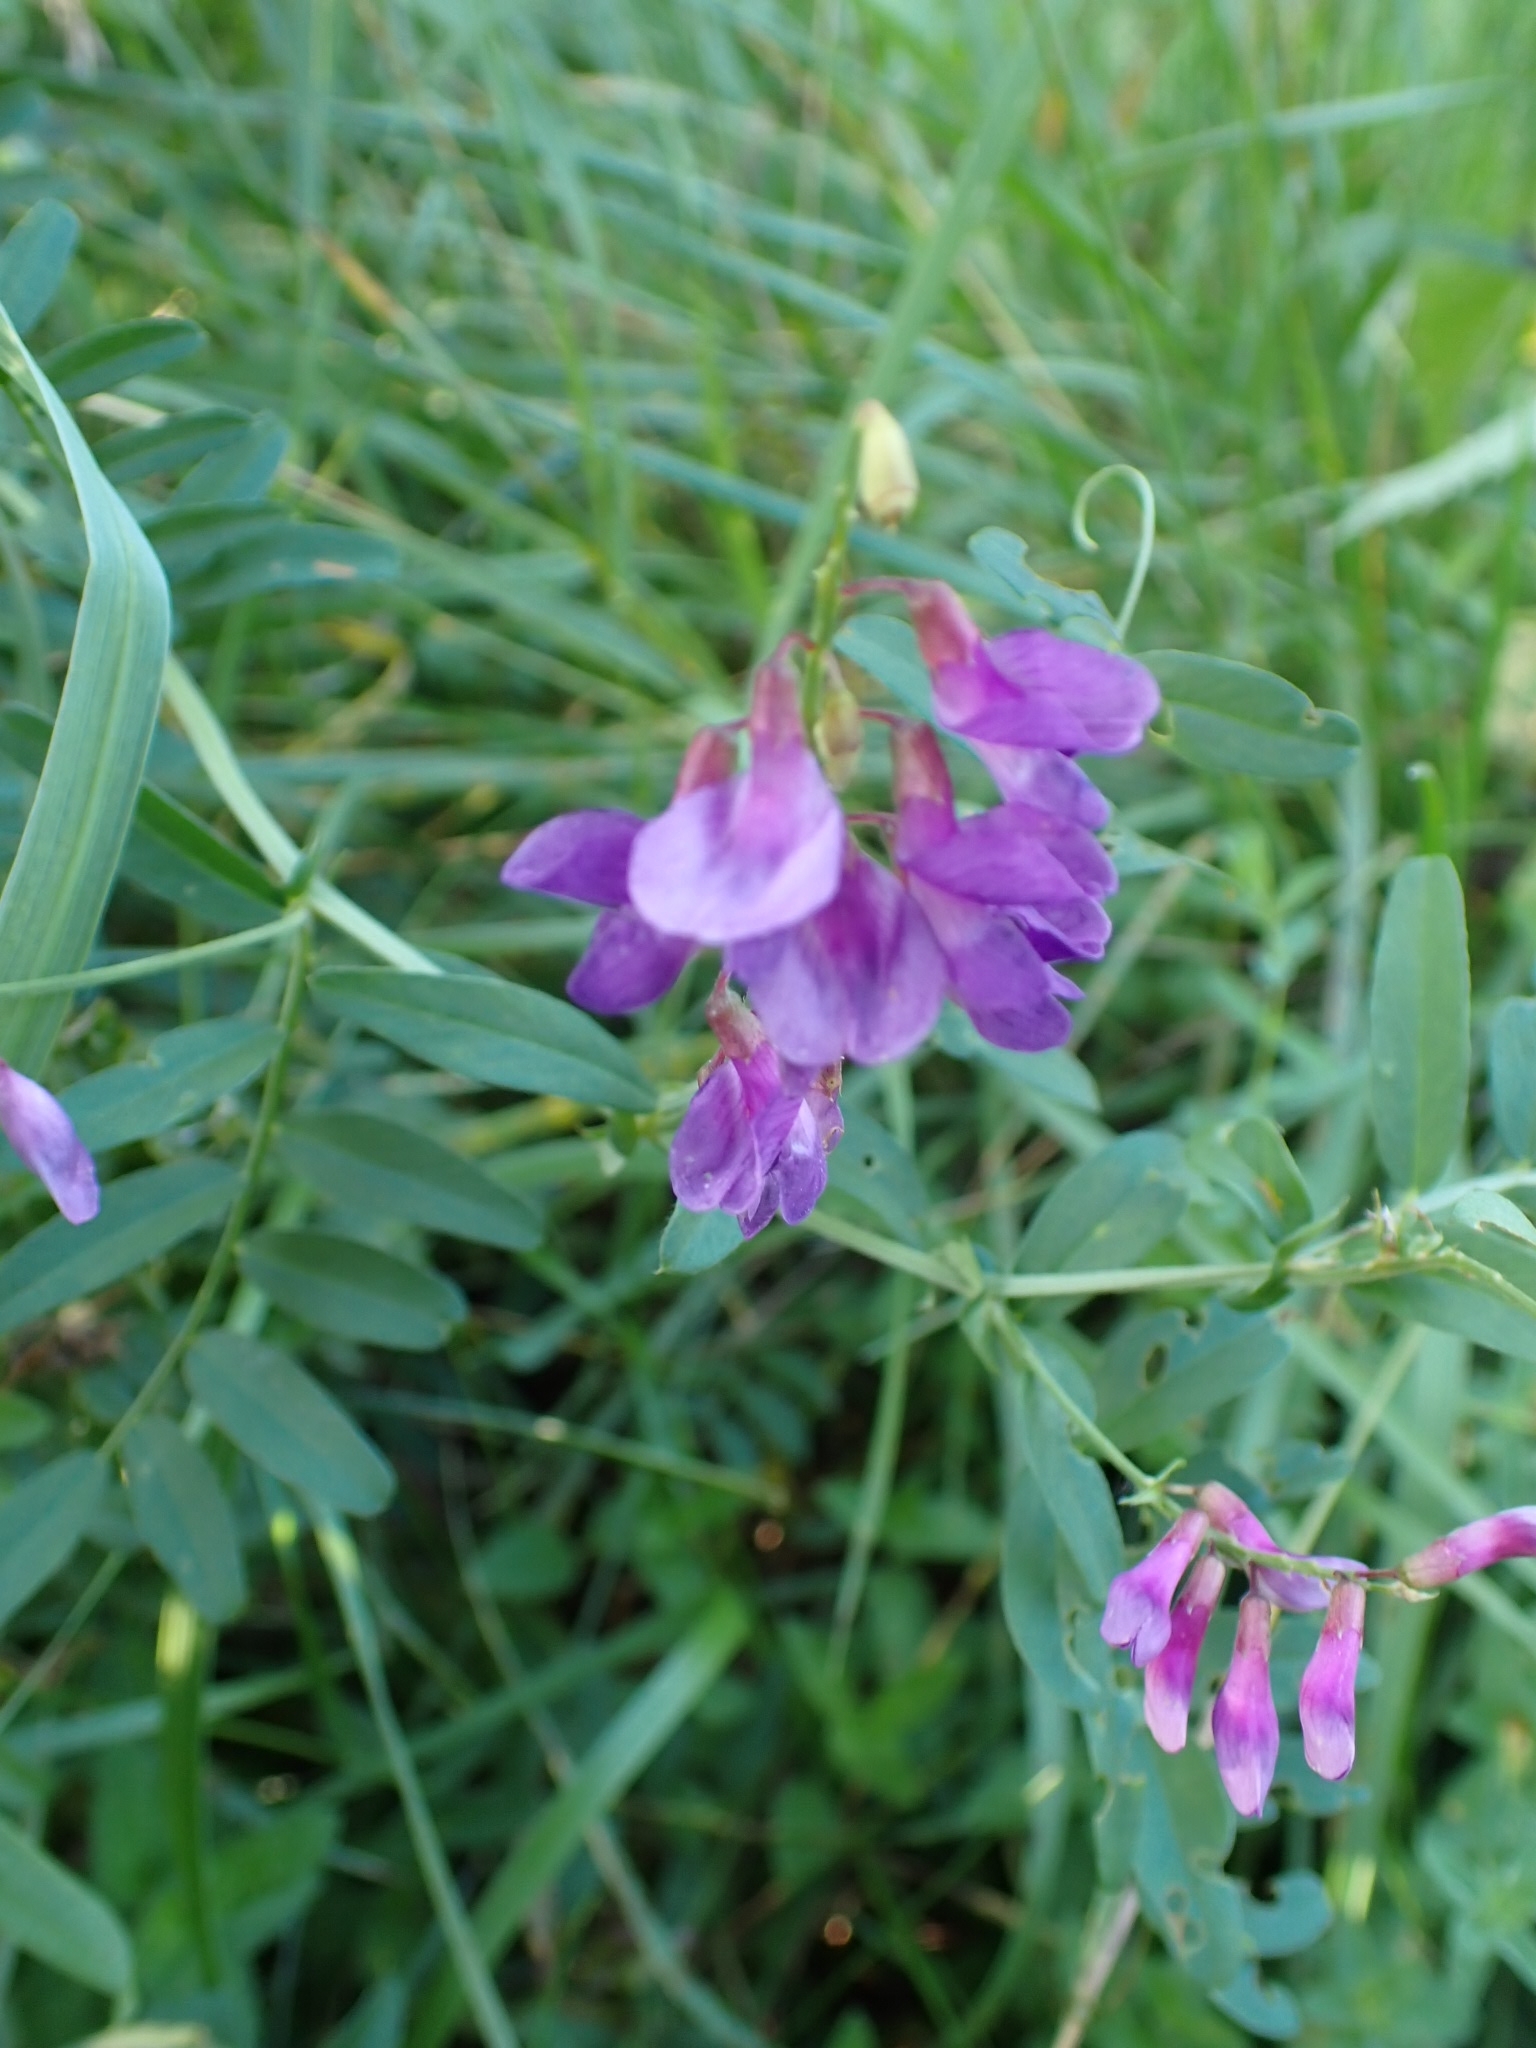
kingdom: Plantae
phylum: Tracheophyta
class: Magnoliopsida
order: Fabales
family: Fabaceae
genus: Vicia
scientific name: Vicia amoena
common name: Cheder ebs
